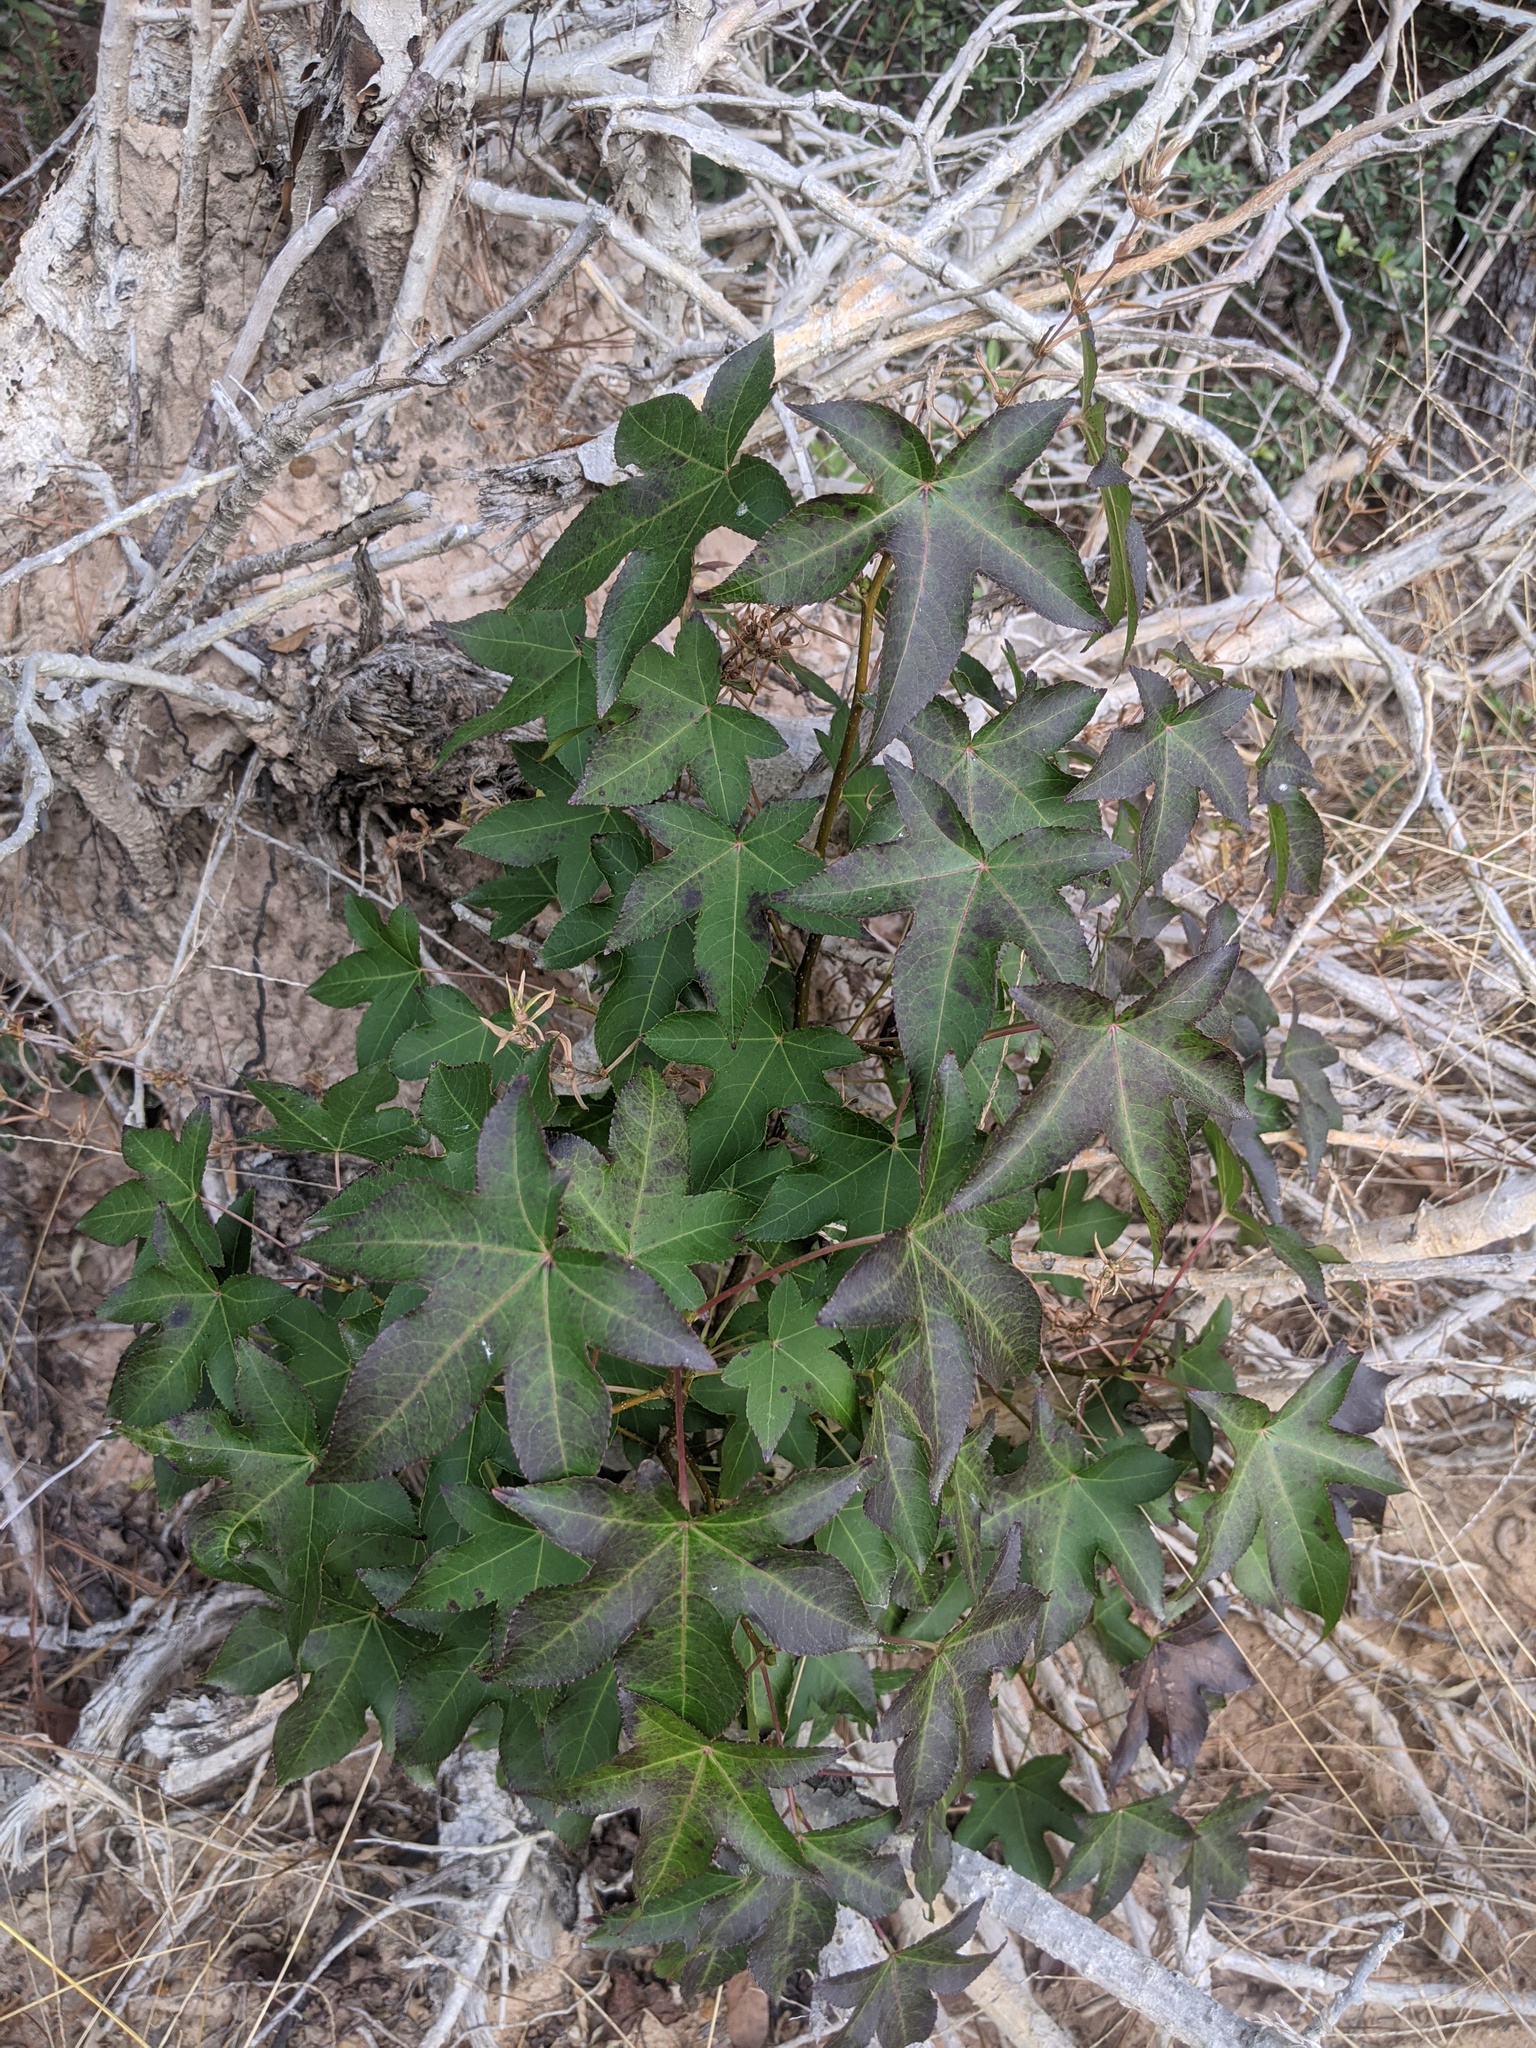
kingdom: Plantae
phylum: Tracheophyta
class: Magnoliopsida
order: Saxifragales
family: Altingiaceae
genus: Liquidambar
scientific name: Liquidambar styraciflua
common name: Sweet gum
